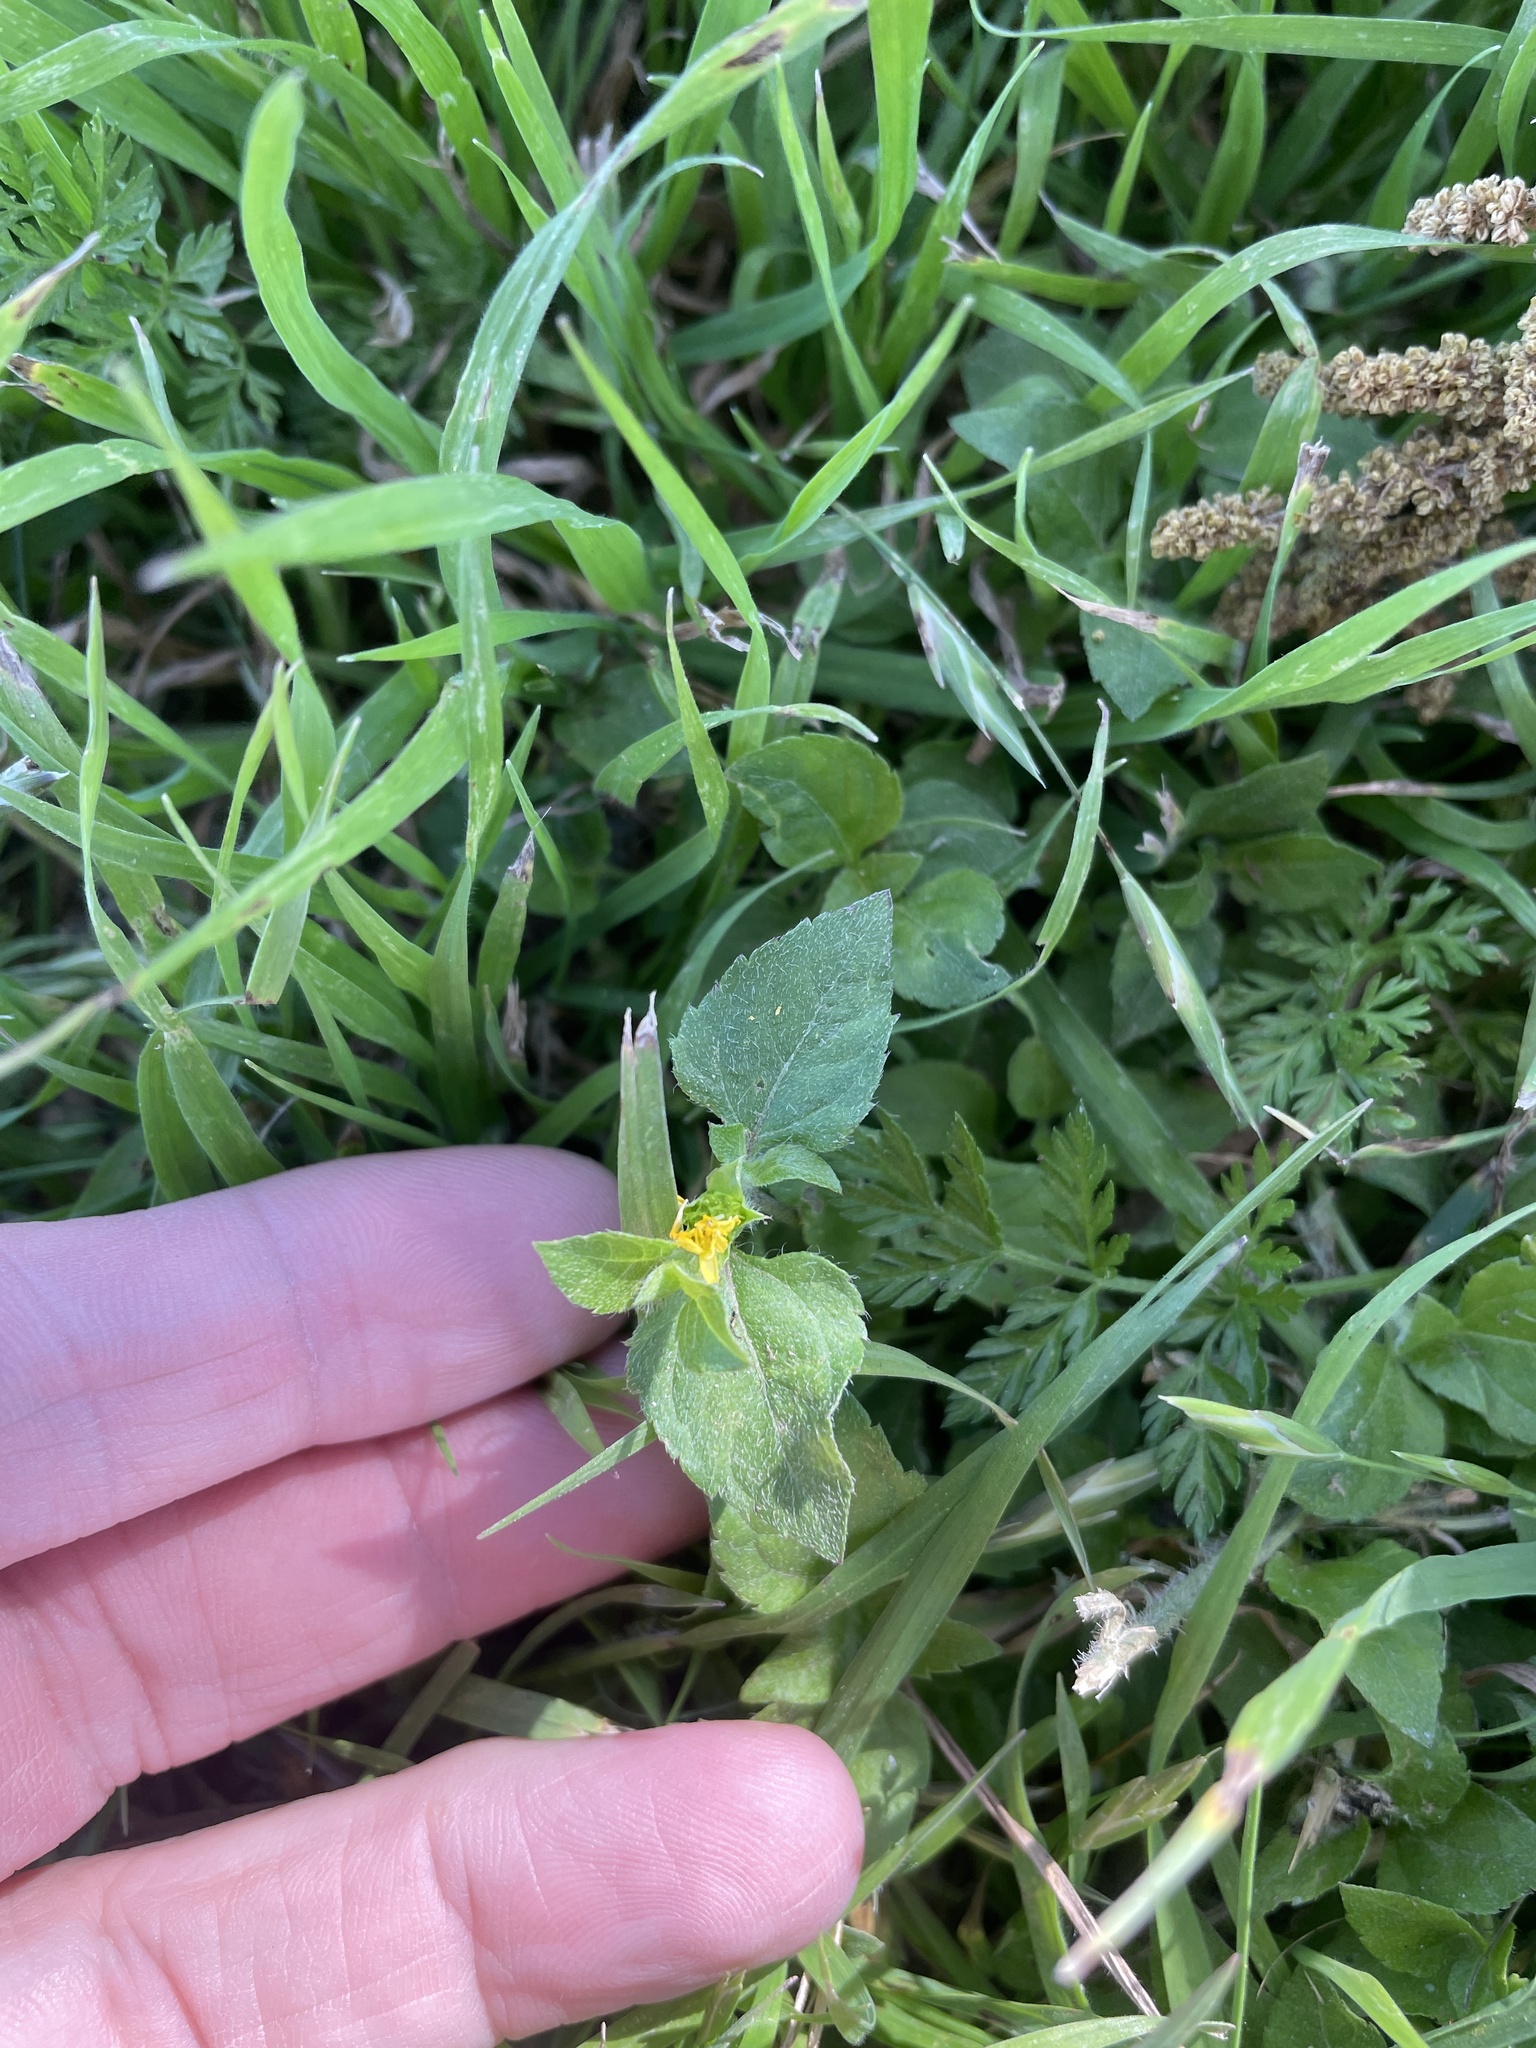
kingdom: Plantae
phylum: Tracheophyta
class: Magnoliopsida
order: Asterales
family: Asteraceae
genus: Calyptocarpus
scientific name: Calyptocarpus vialis
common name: Straggler daisy
